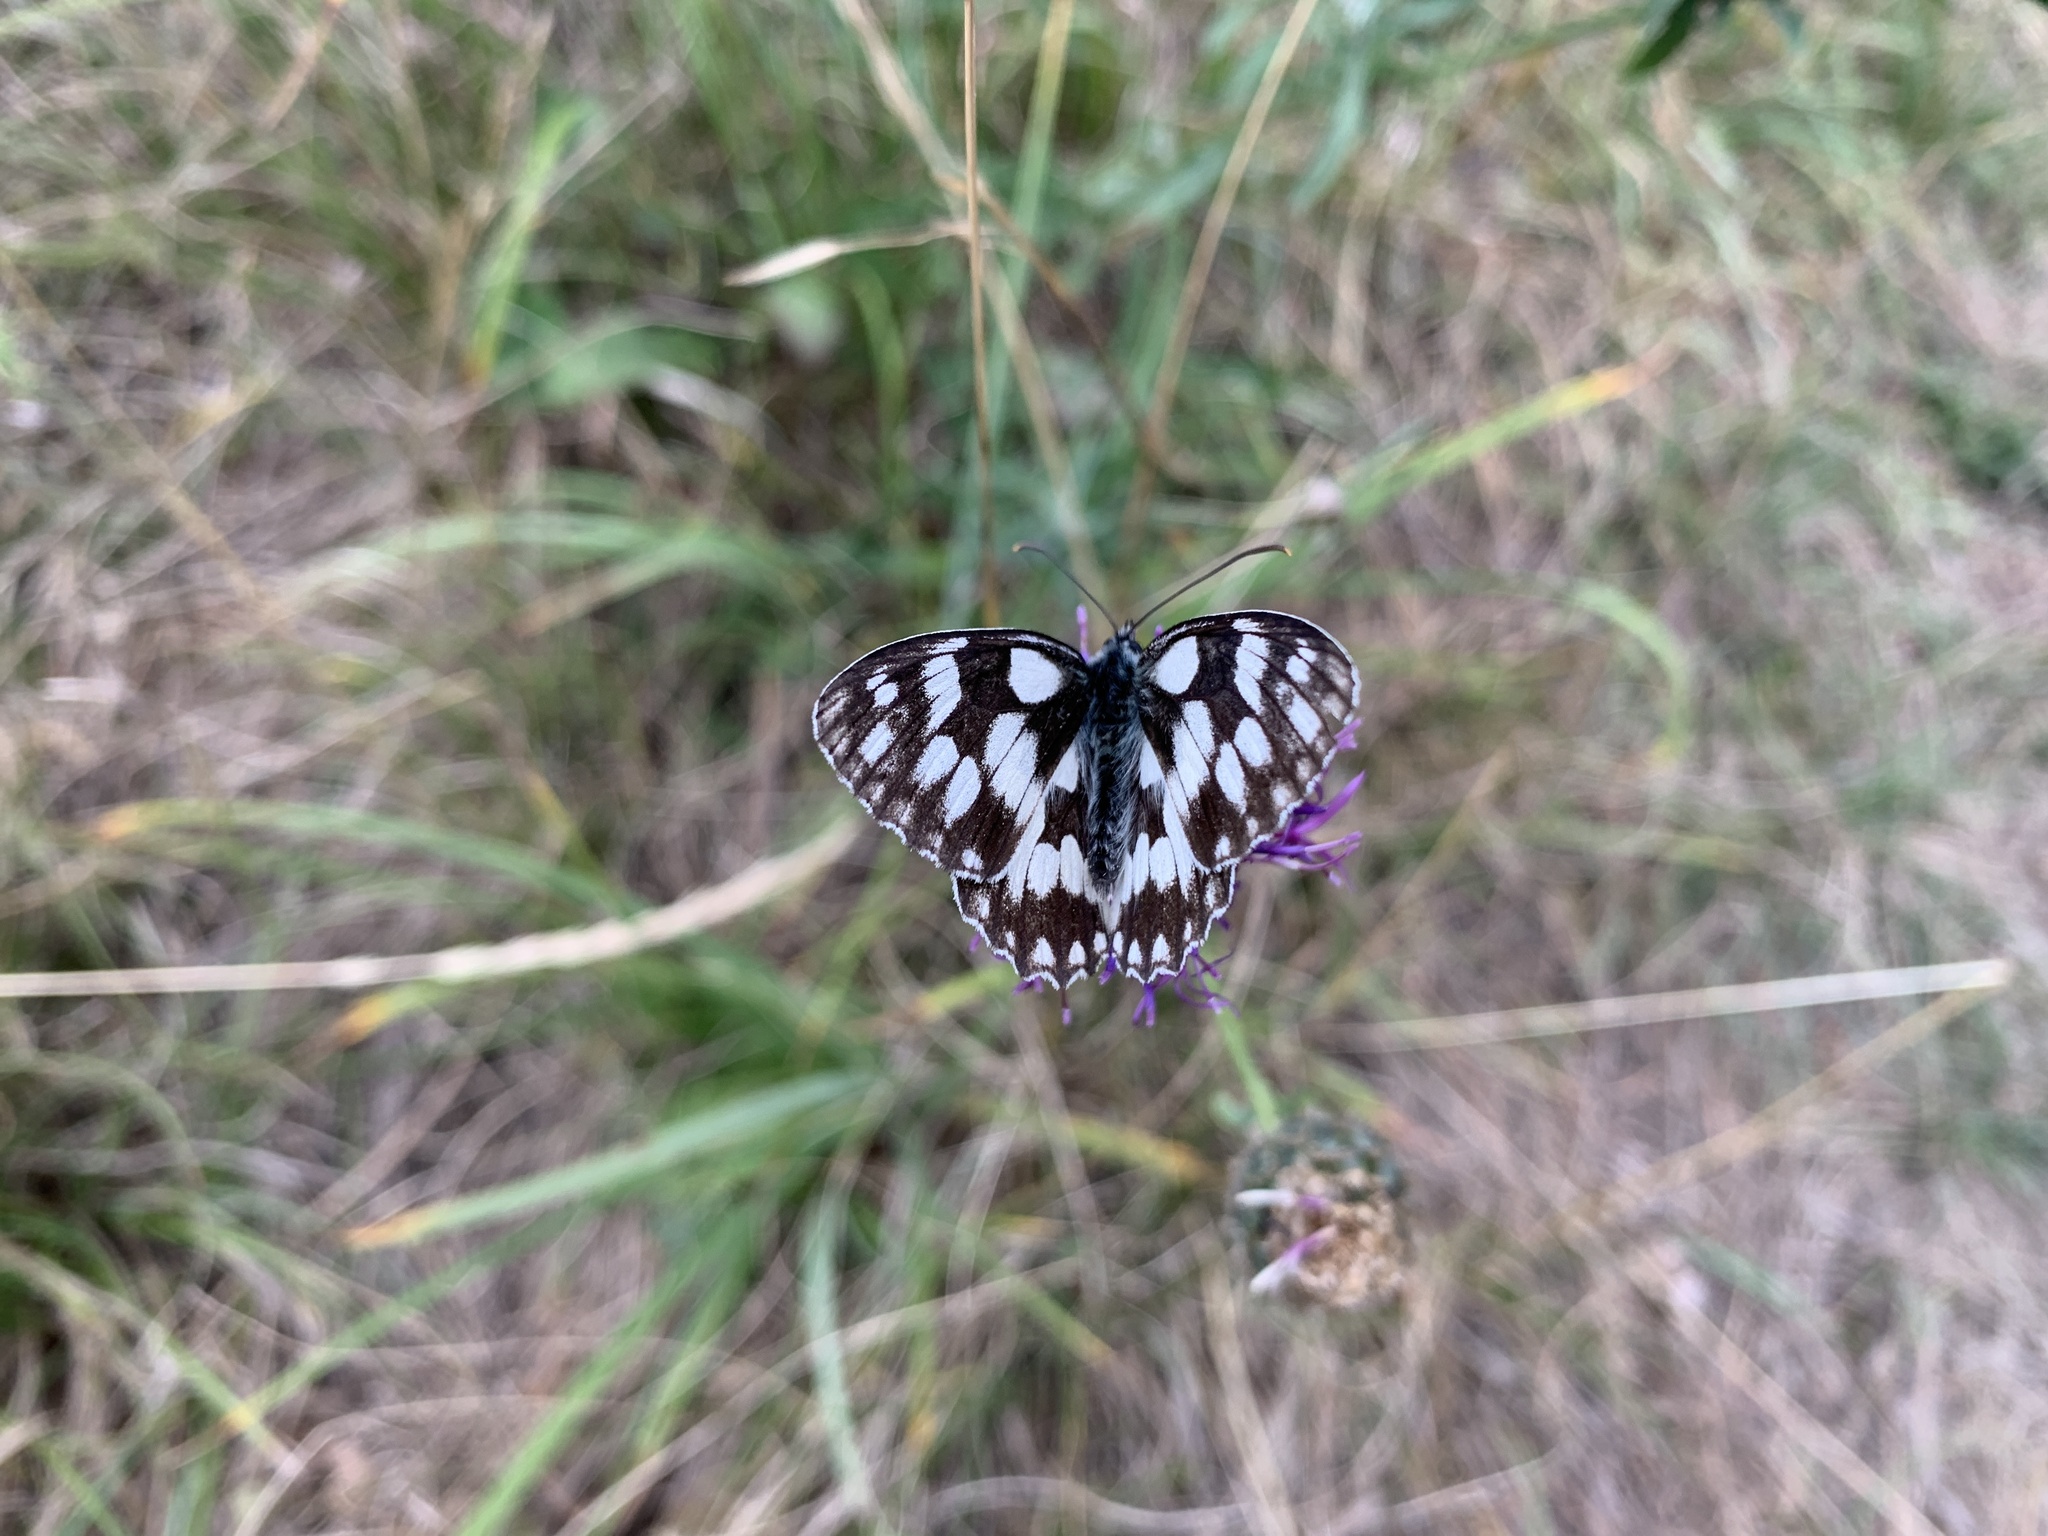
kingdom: Animalia
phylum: Arthropoda
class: Insecta
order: Lepidoptera
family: Nymphalidae
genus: Melanargia
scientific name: Melanargia galathea
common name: Marbled white
